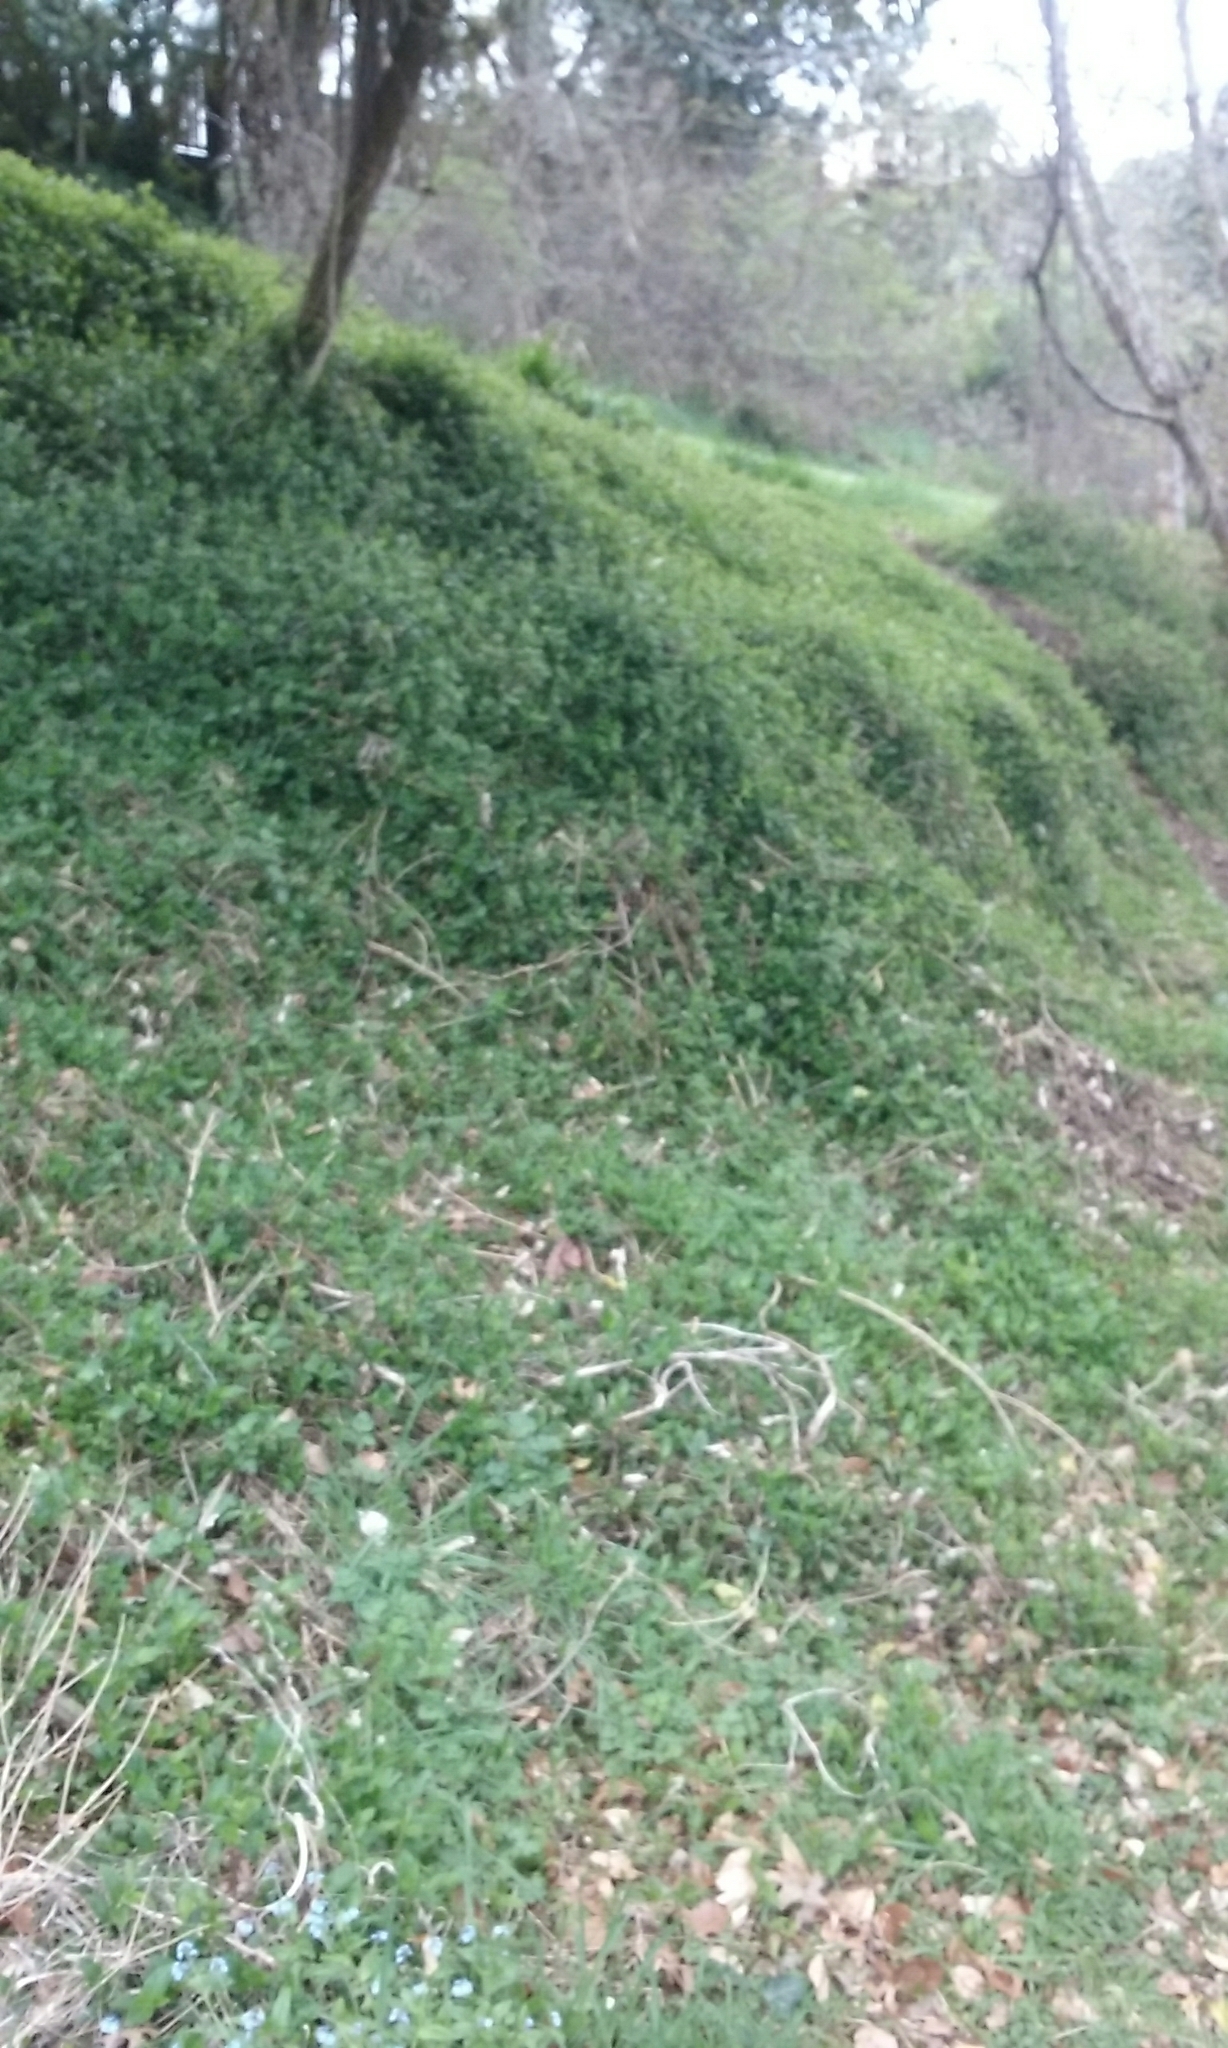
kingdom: Plantae
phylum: Tracheophyta
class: Liliopsida
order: Commelinales
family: Commelinaceae
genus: Tradescantia
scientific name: Tradescantia fluminensis
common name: Wandering-jew
